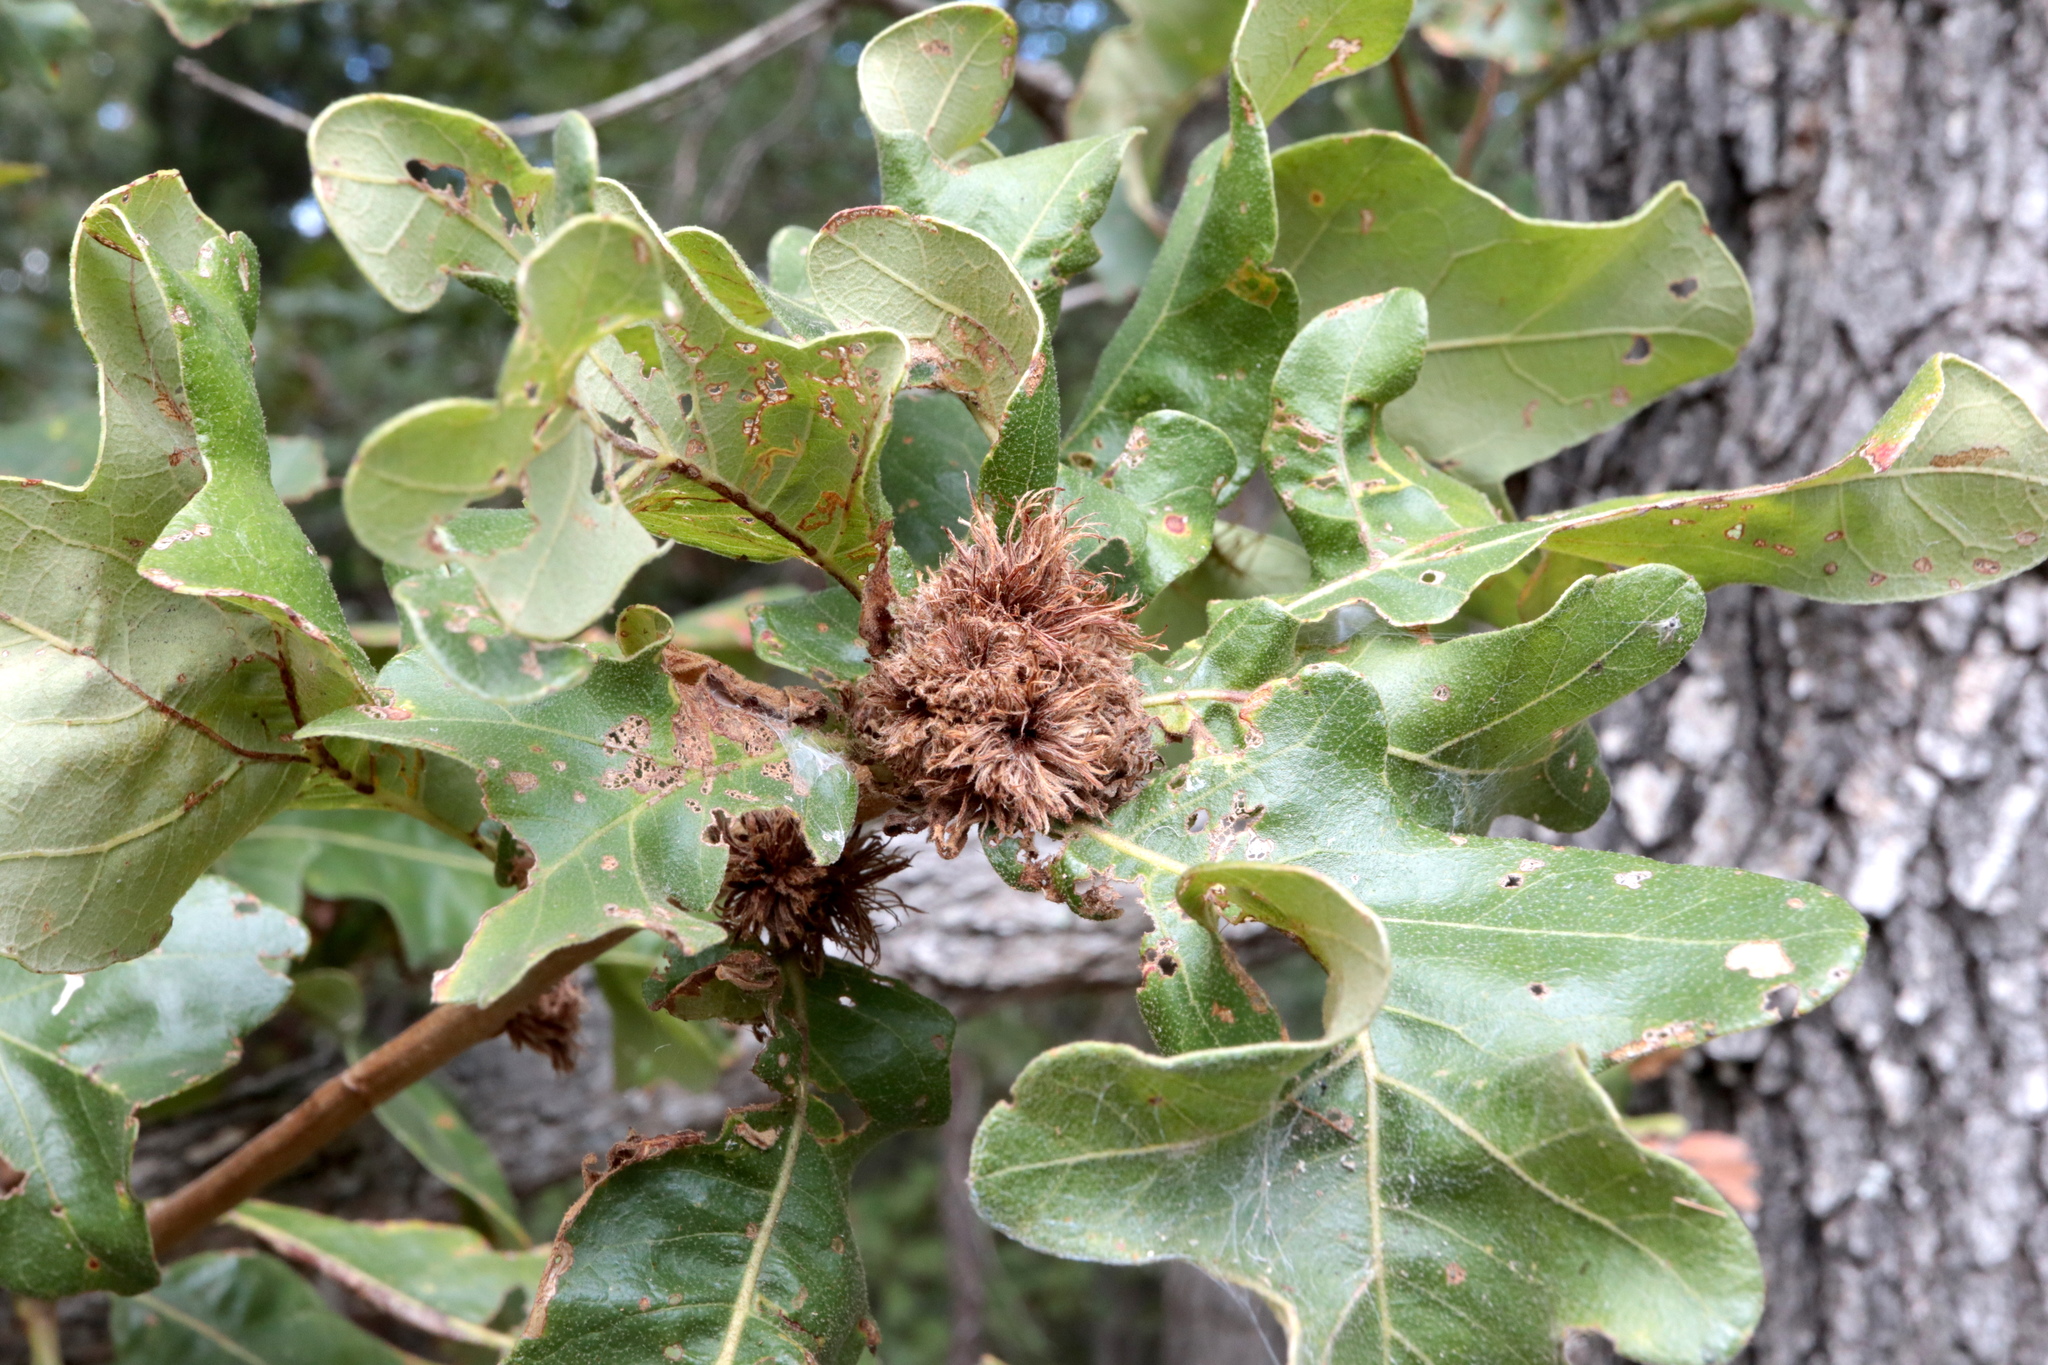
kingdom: Animalia
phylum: Arthropoda
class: Insecta
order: Hymenoptera
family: Cynipidae
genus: Andricus
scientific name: Andricus
